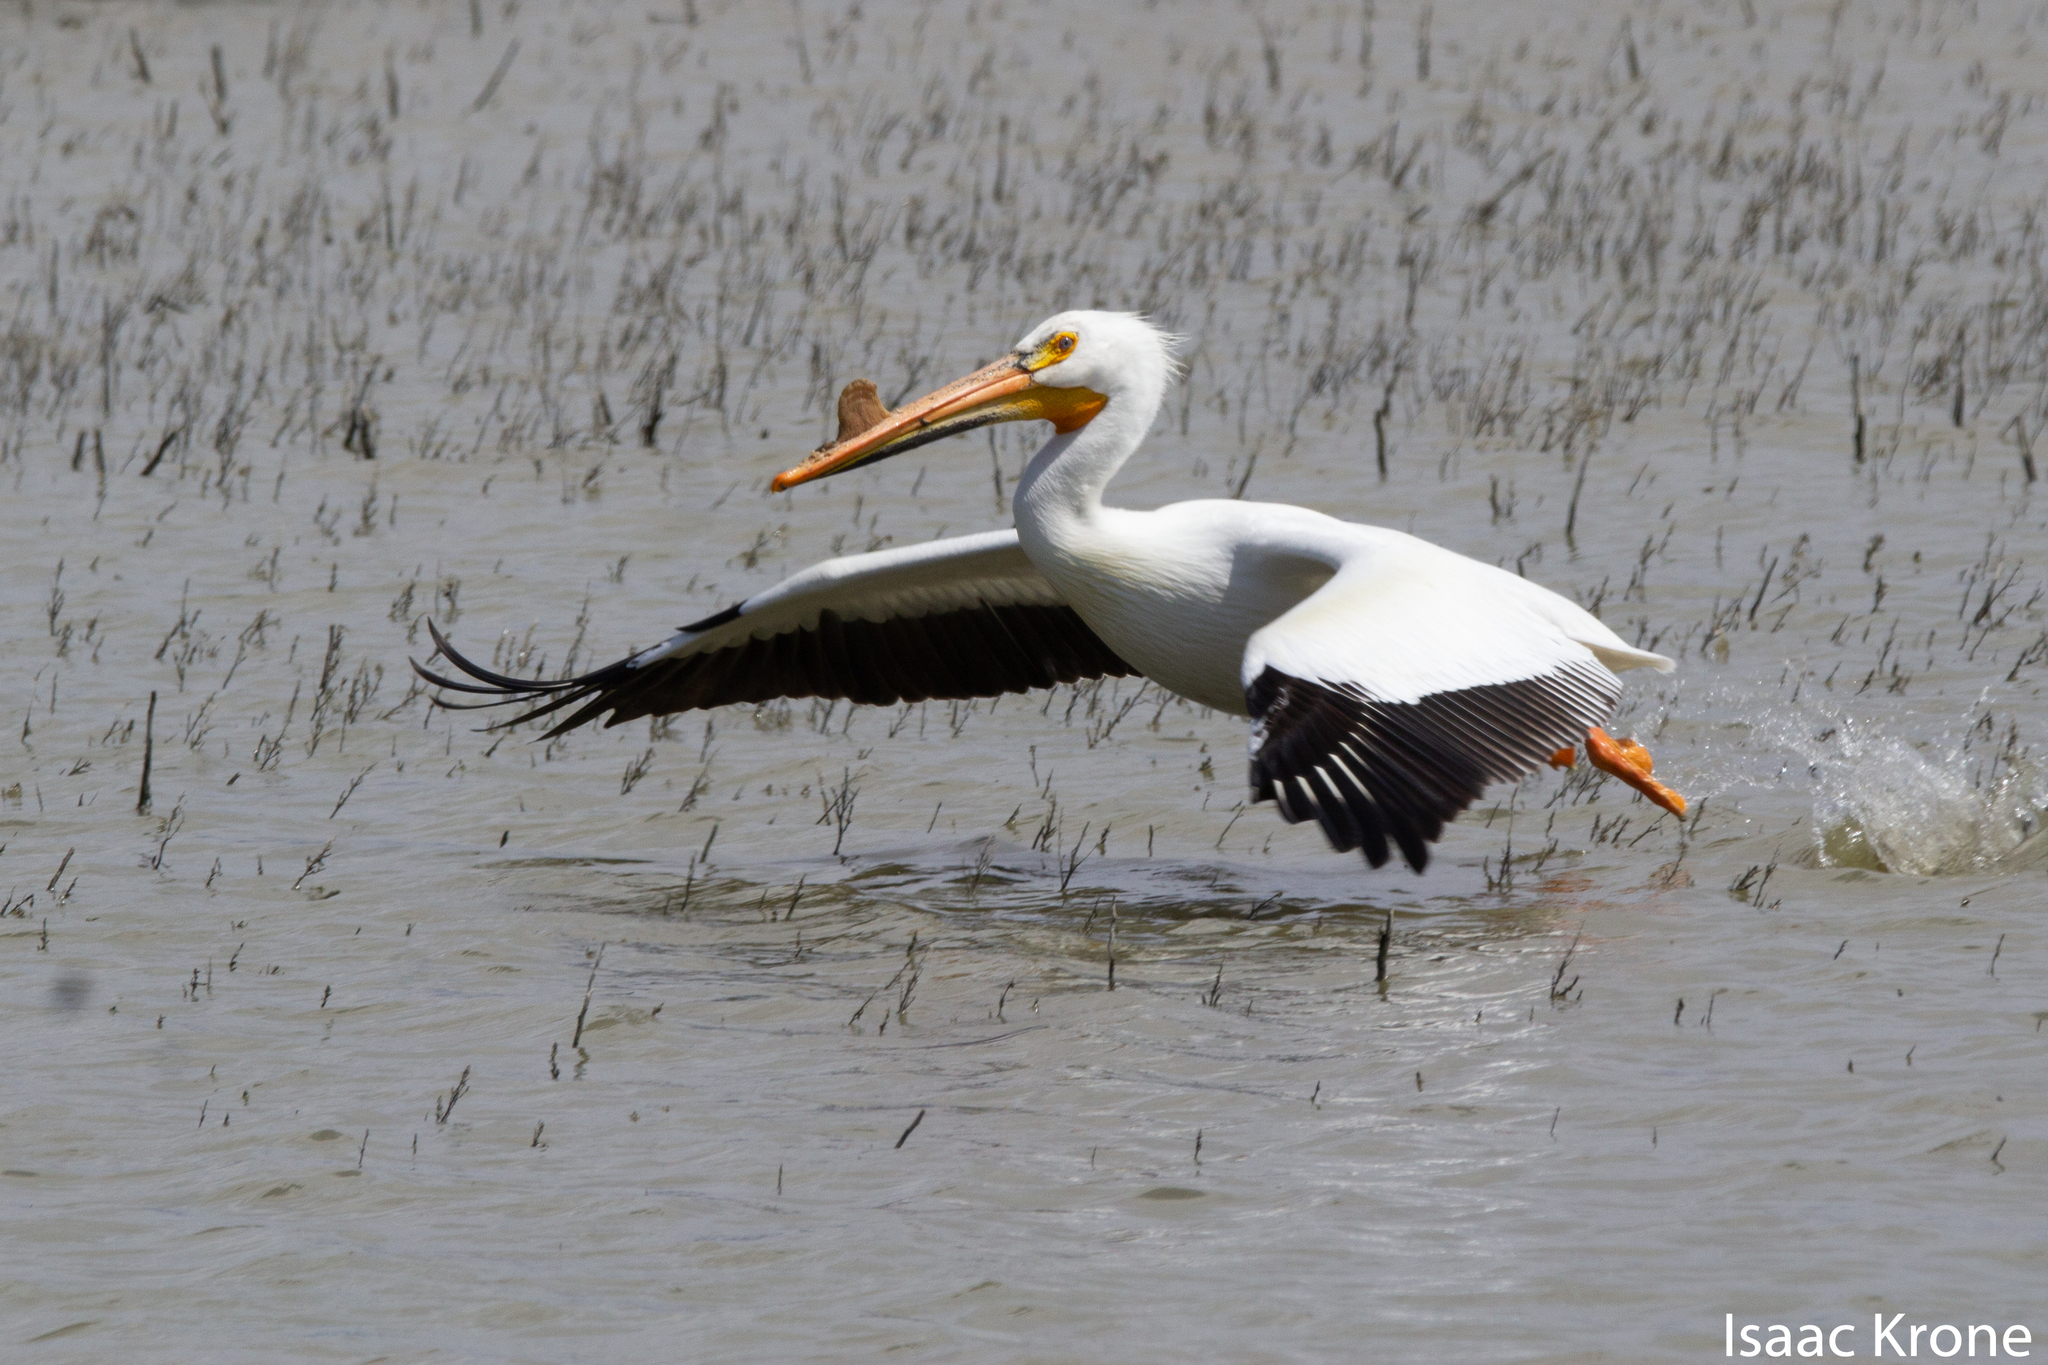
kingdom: Animalia
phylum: Chordata
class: Aves
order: Pelecaniformes
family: Pelecanidae
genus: Pelecanus
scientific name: Pelecanus erythrorhynchos
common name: American white pelican
